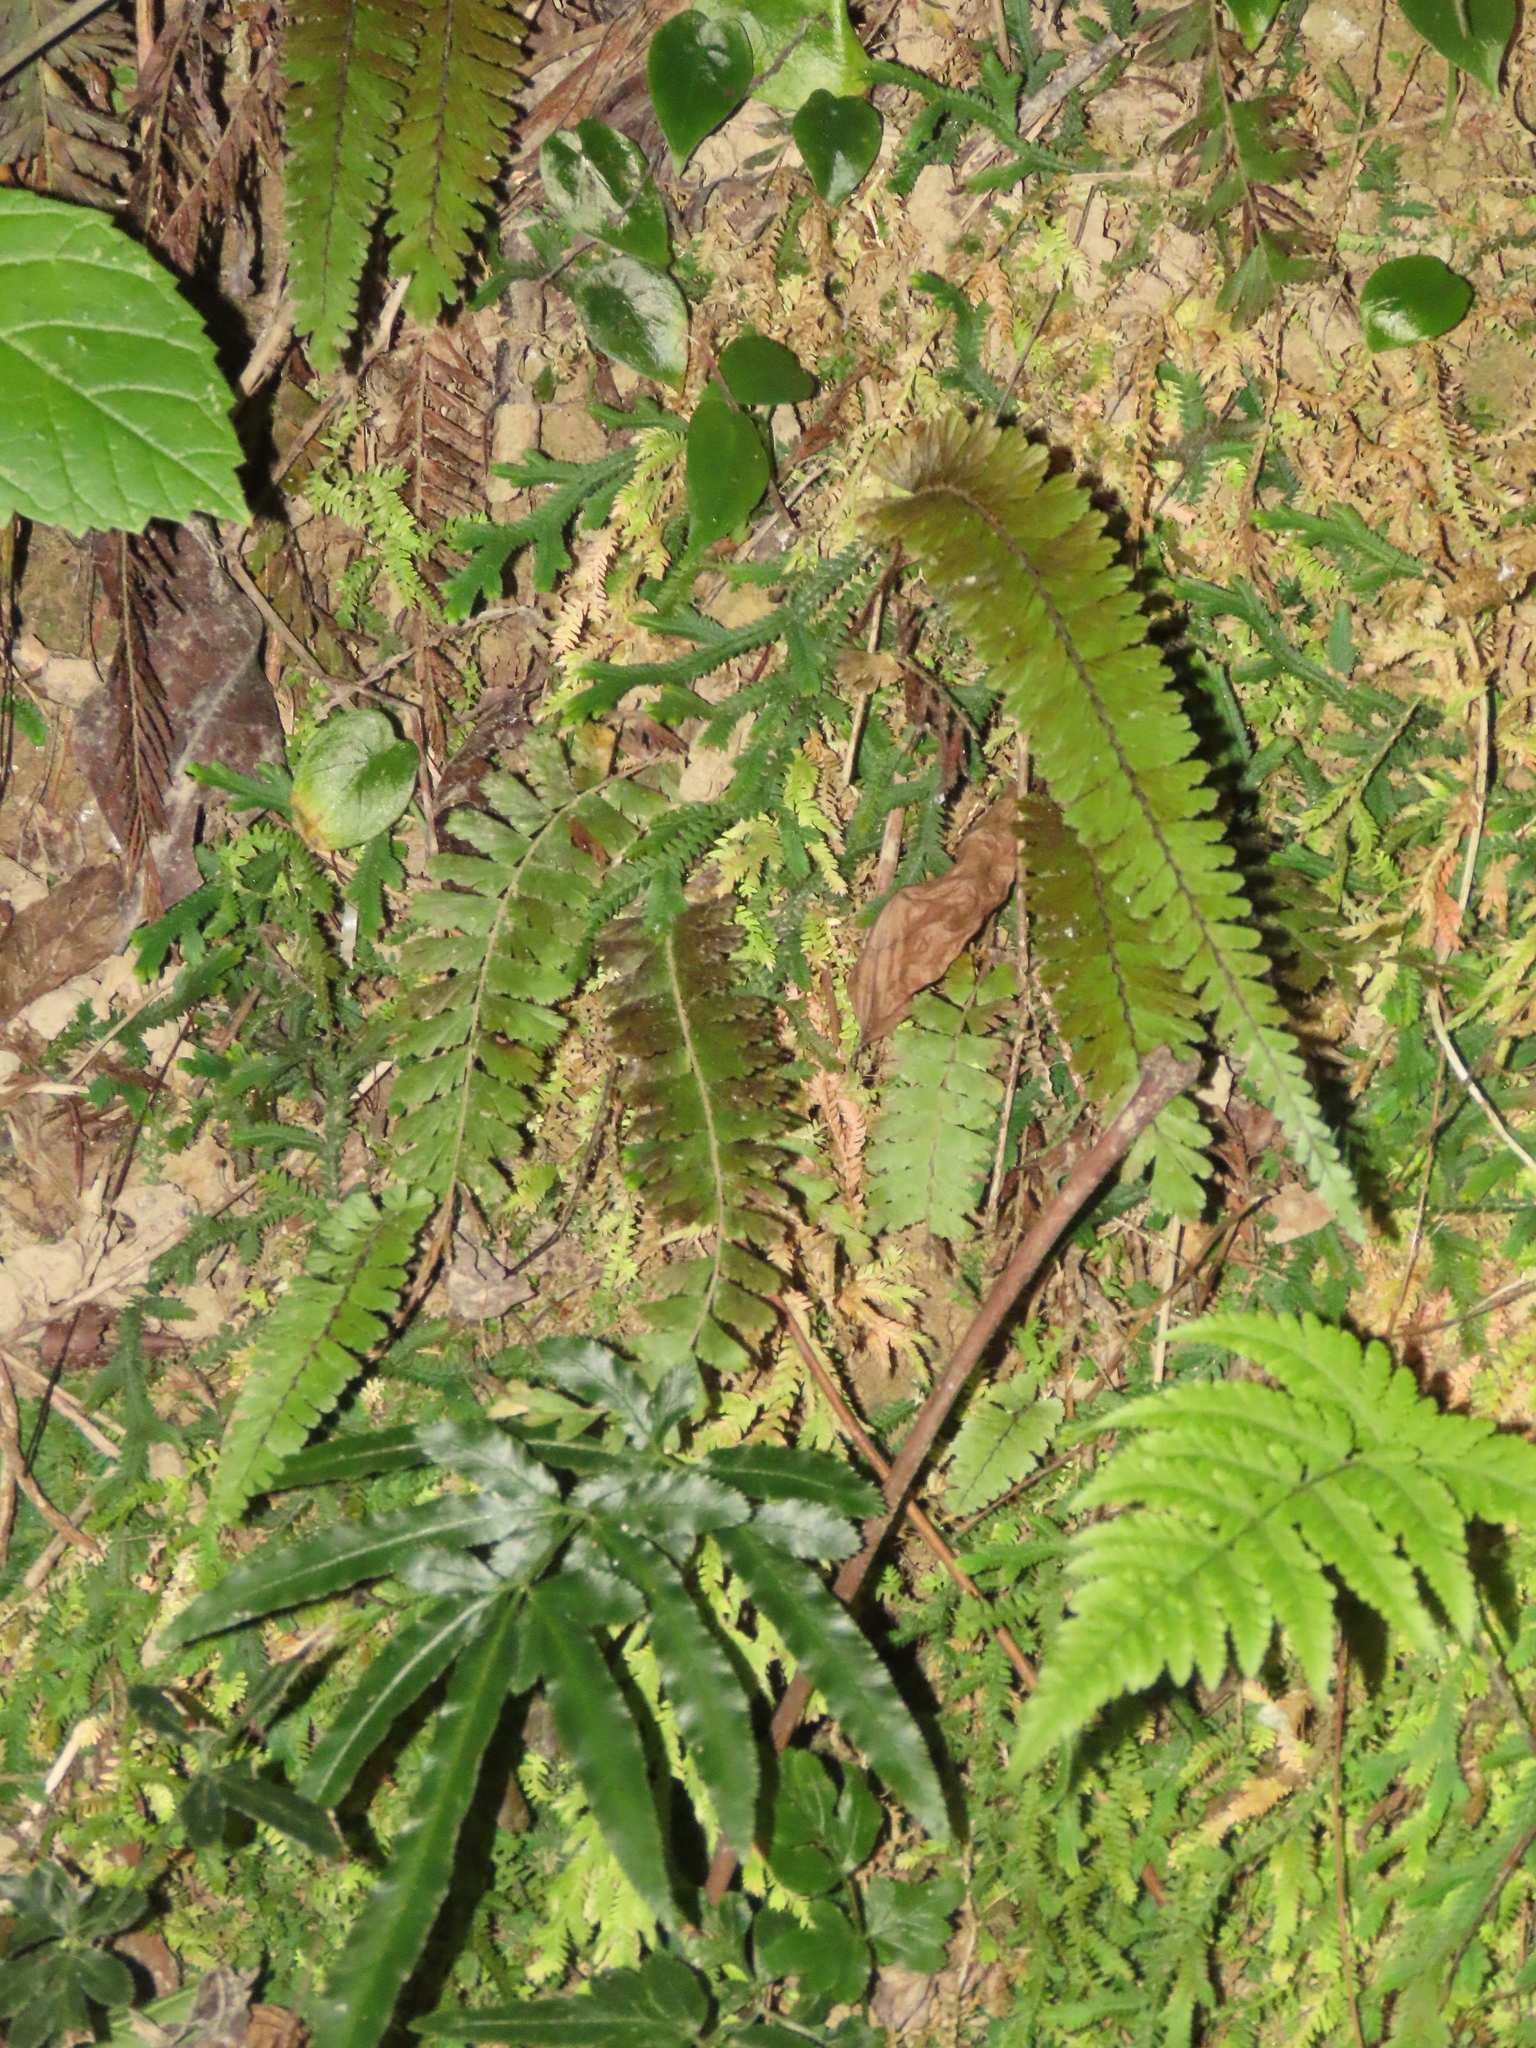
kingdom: Plantae
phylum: Tracheophyta
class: Polypodiopsida
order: Polypodiales
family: Pteridaceae
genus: Adiantum
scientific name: Adiantum caudatum
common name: Tailed maidenhair
